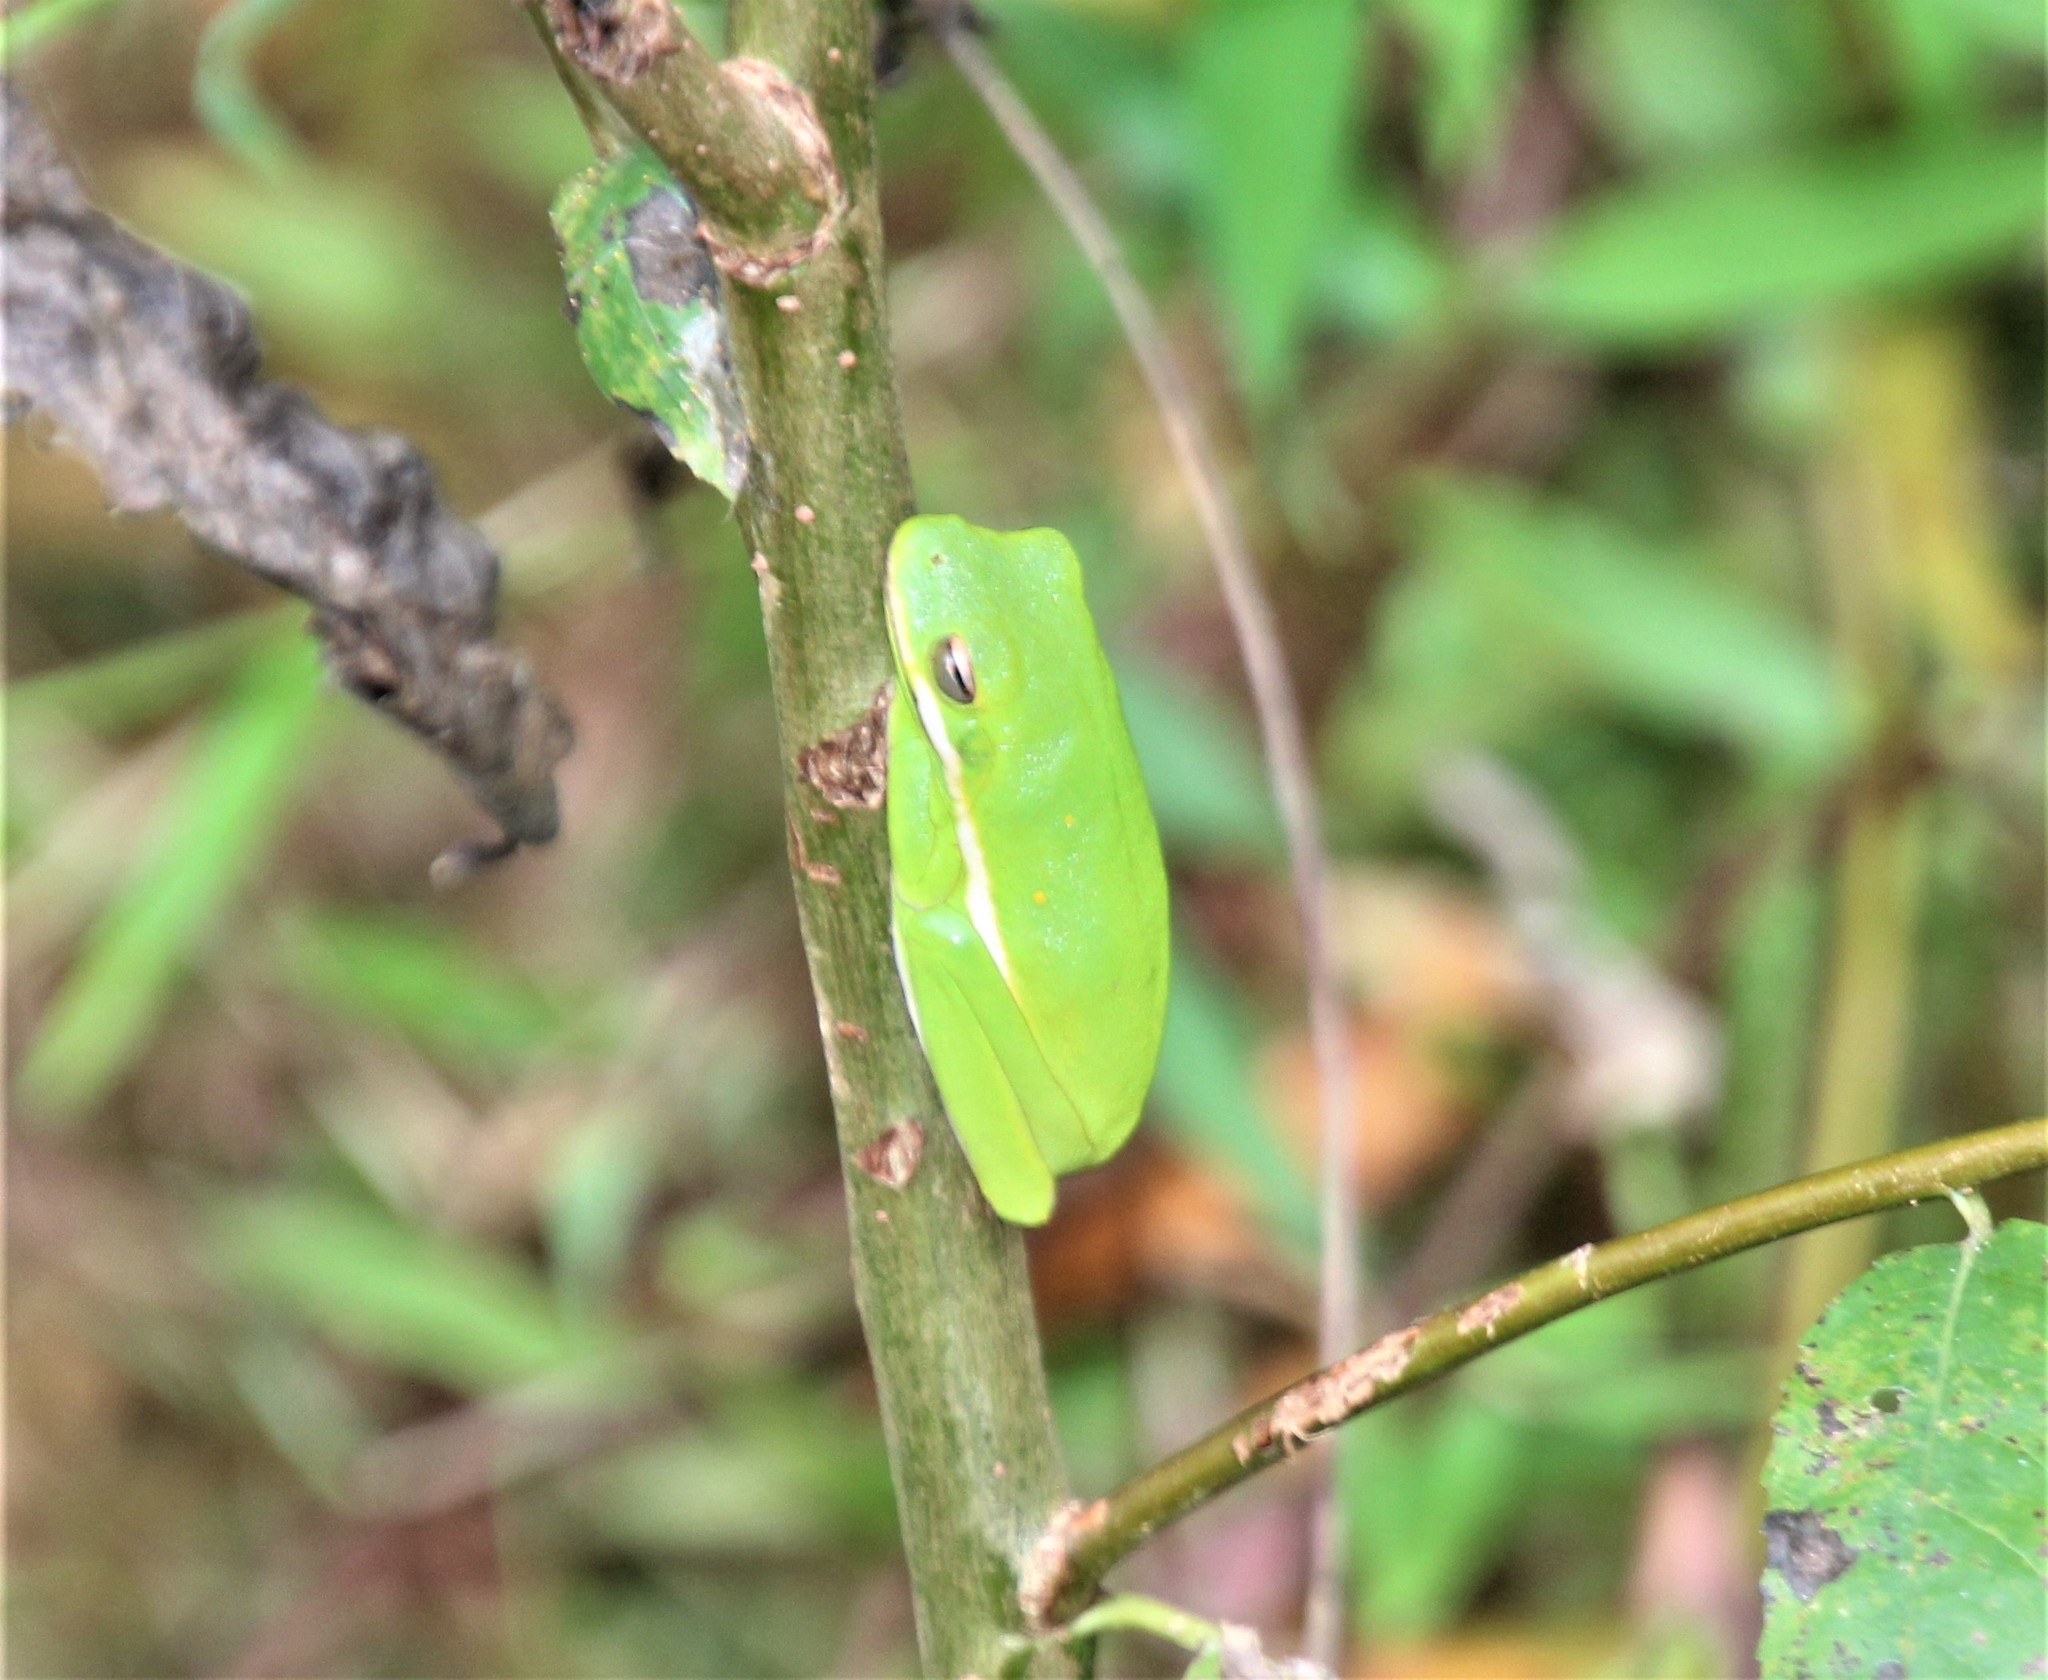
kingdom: Animalia
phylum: Chordata
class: Amphibia
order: Anura
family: Hylidae
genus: Dryophytes
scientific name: Dryophytes cinereus
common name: Green treefrog
